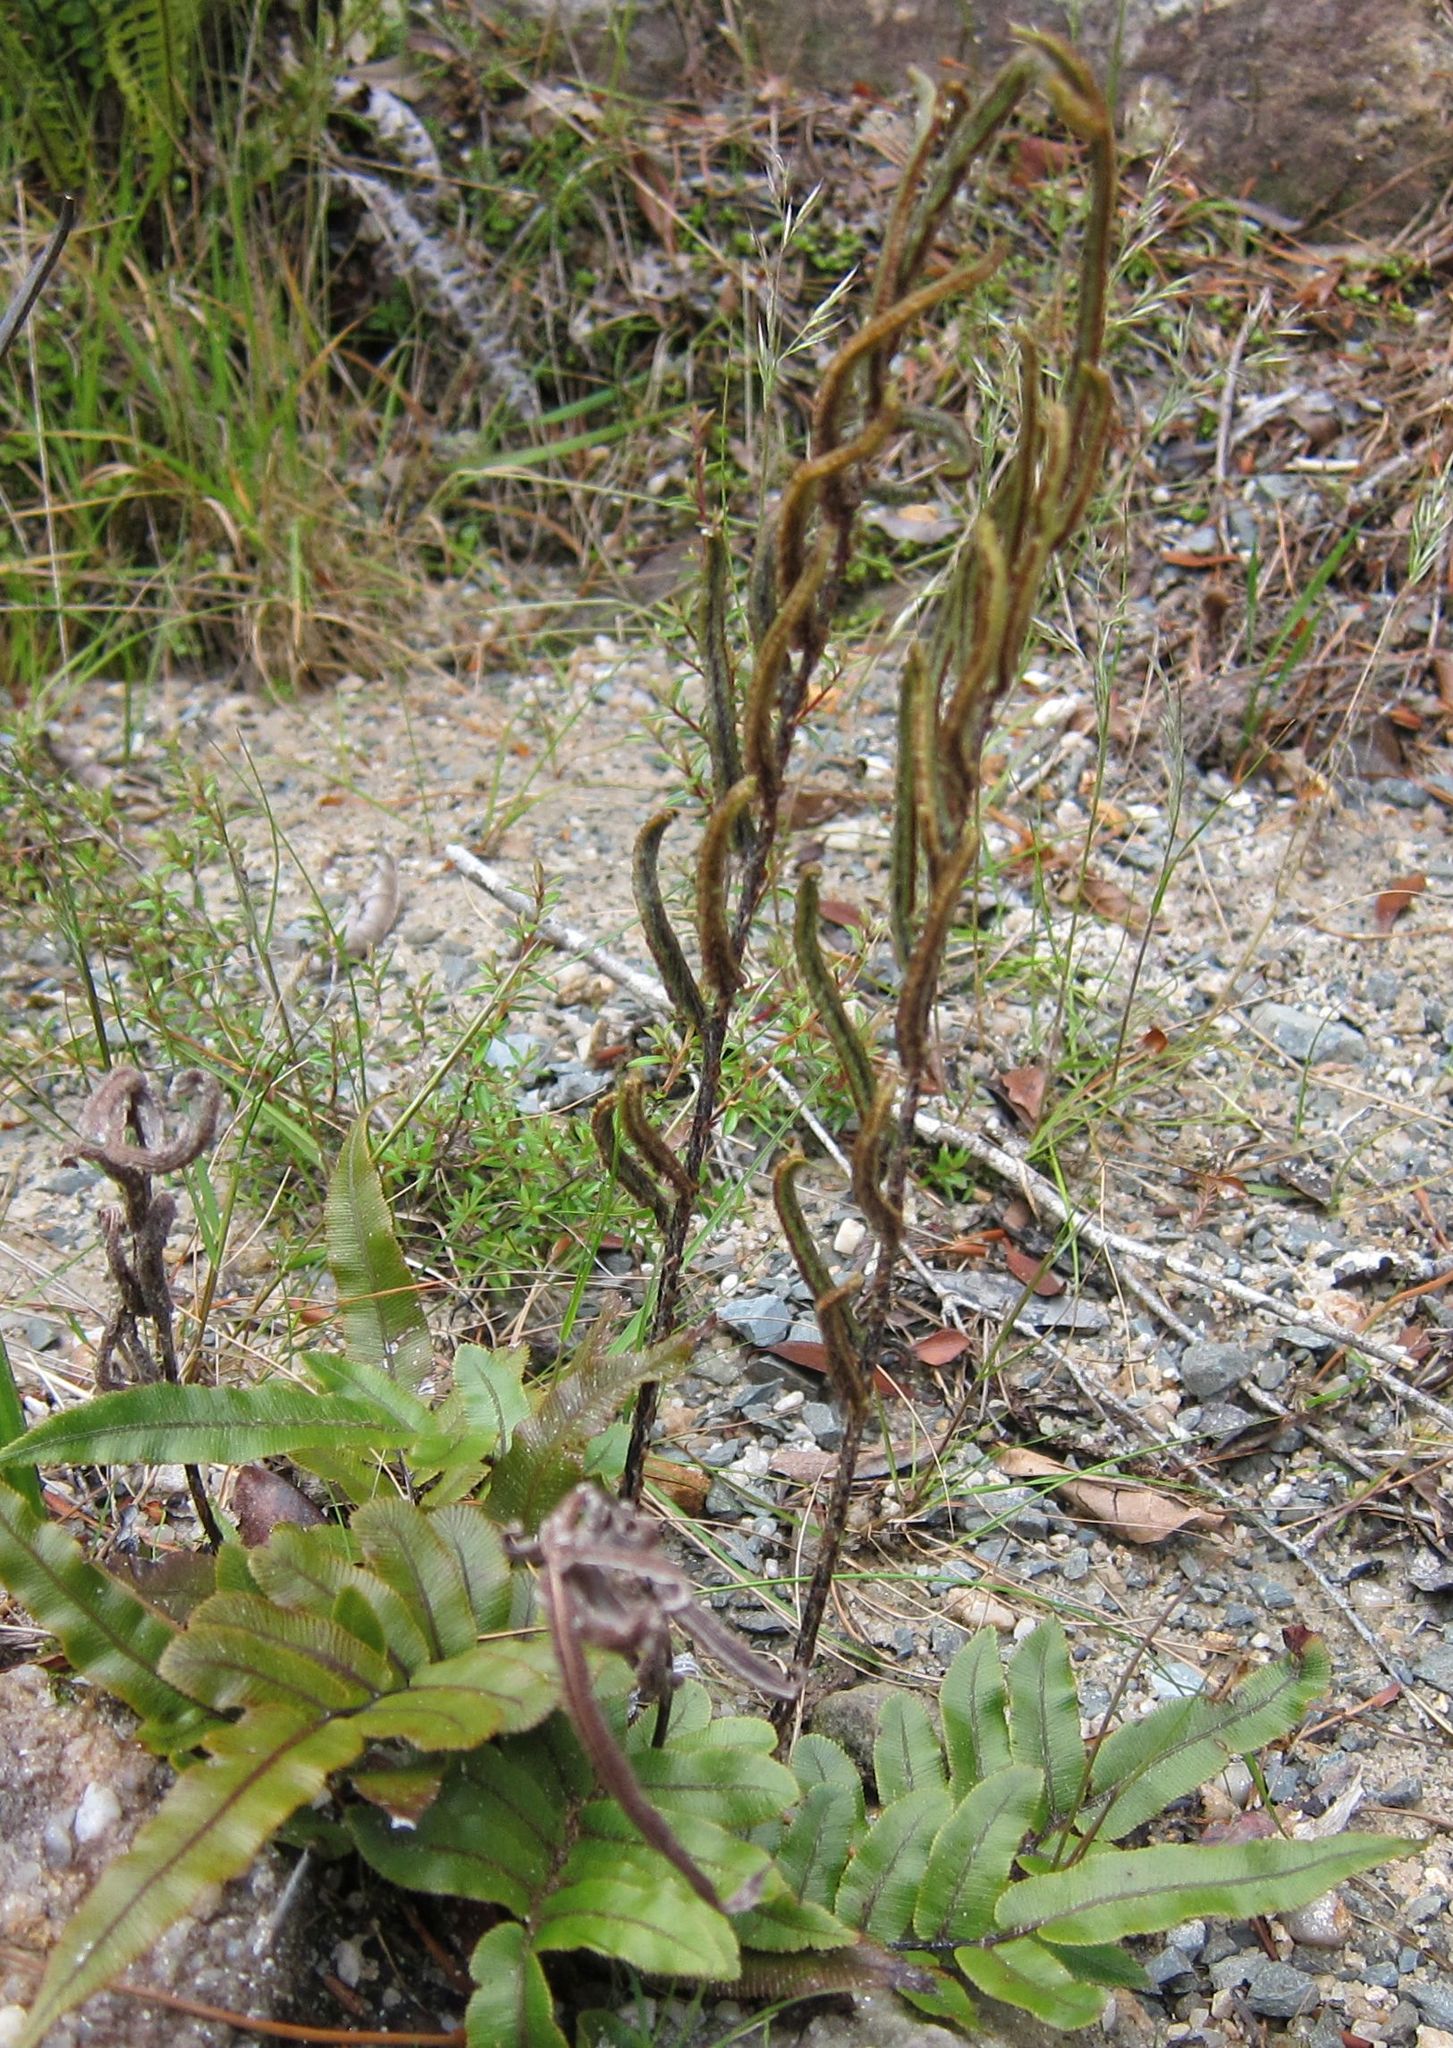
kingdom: Plantae
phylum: Tracheophyta
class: Polypodiopsida
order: Polypodiales
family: Blechnaceae
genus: Parablechnum
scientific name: Parablechnum procerum
